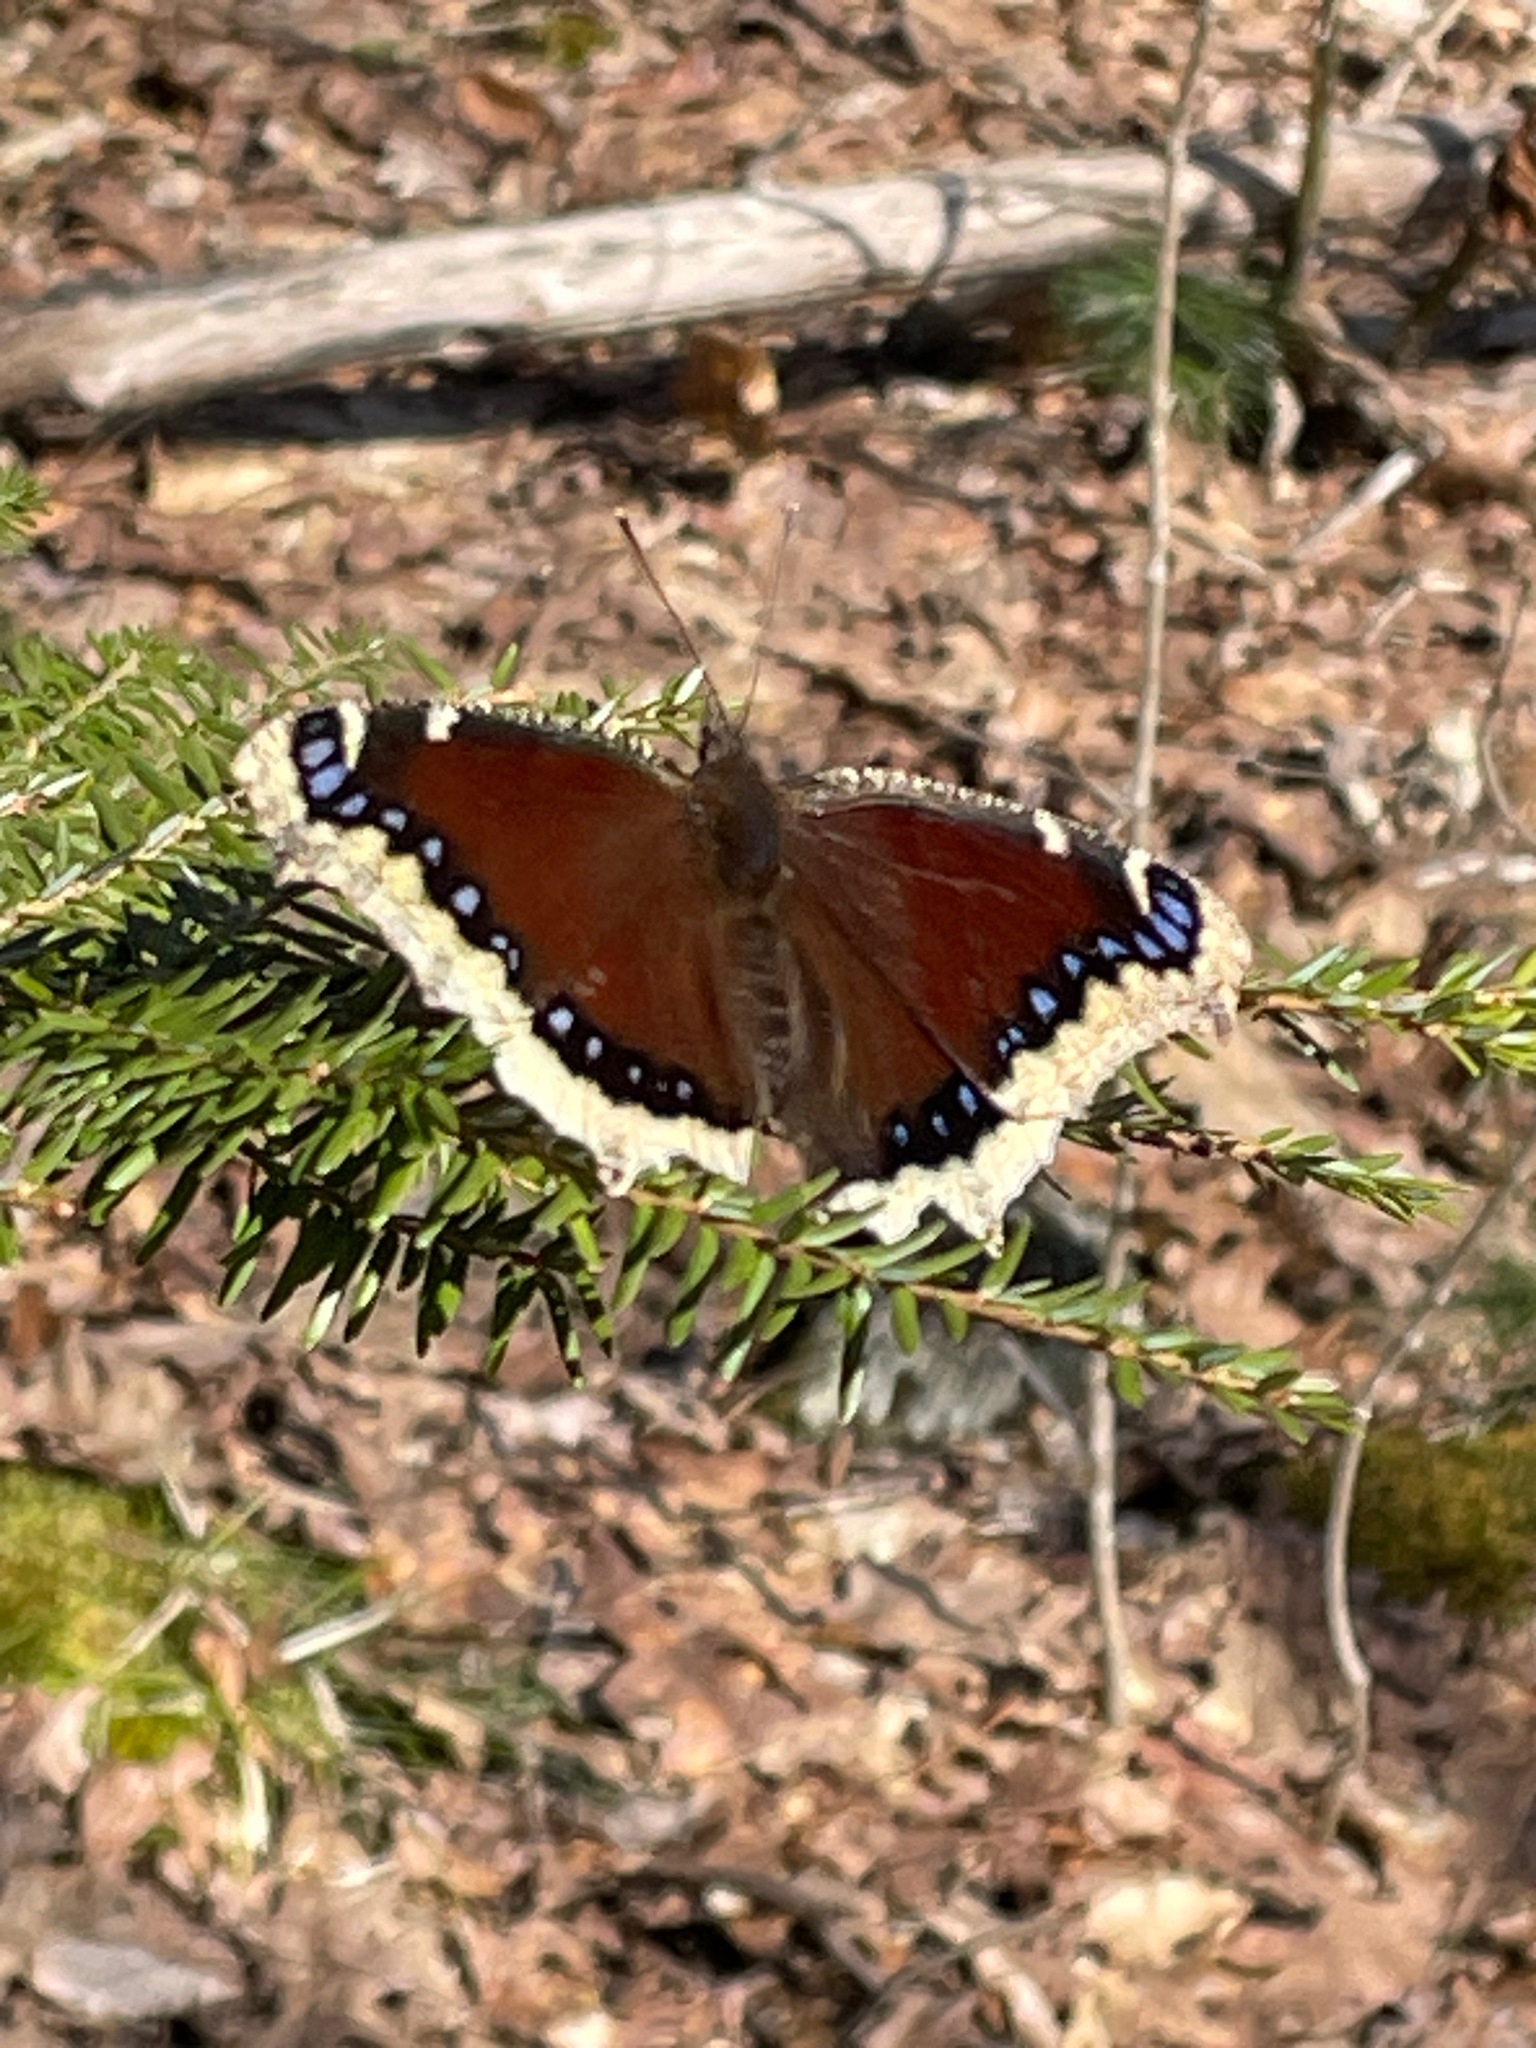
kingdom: Animalia
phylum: Arthropoda
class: Insecta
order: Lepidoptera
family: Nymphalidae
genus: Nymphalis
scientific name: Nymphalis antiopa
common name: Camberwell beauty
